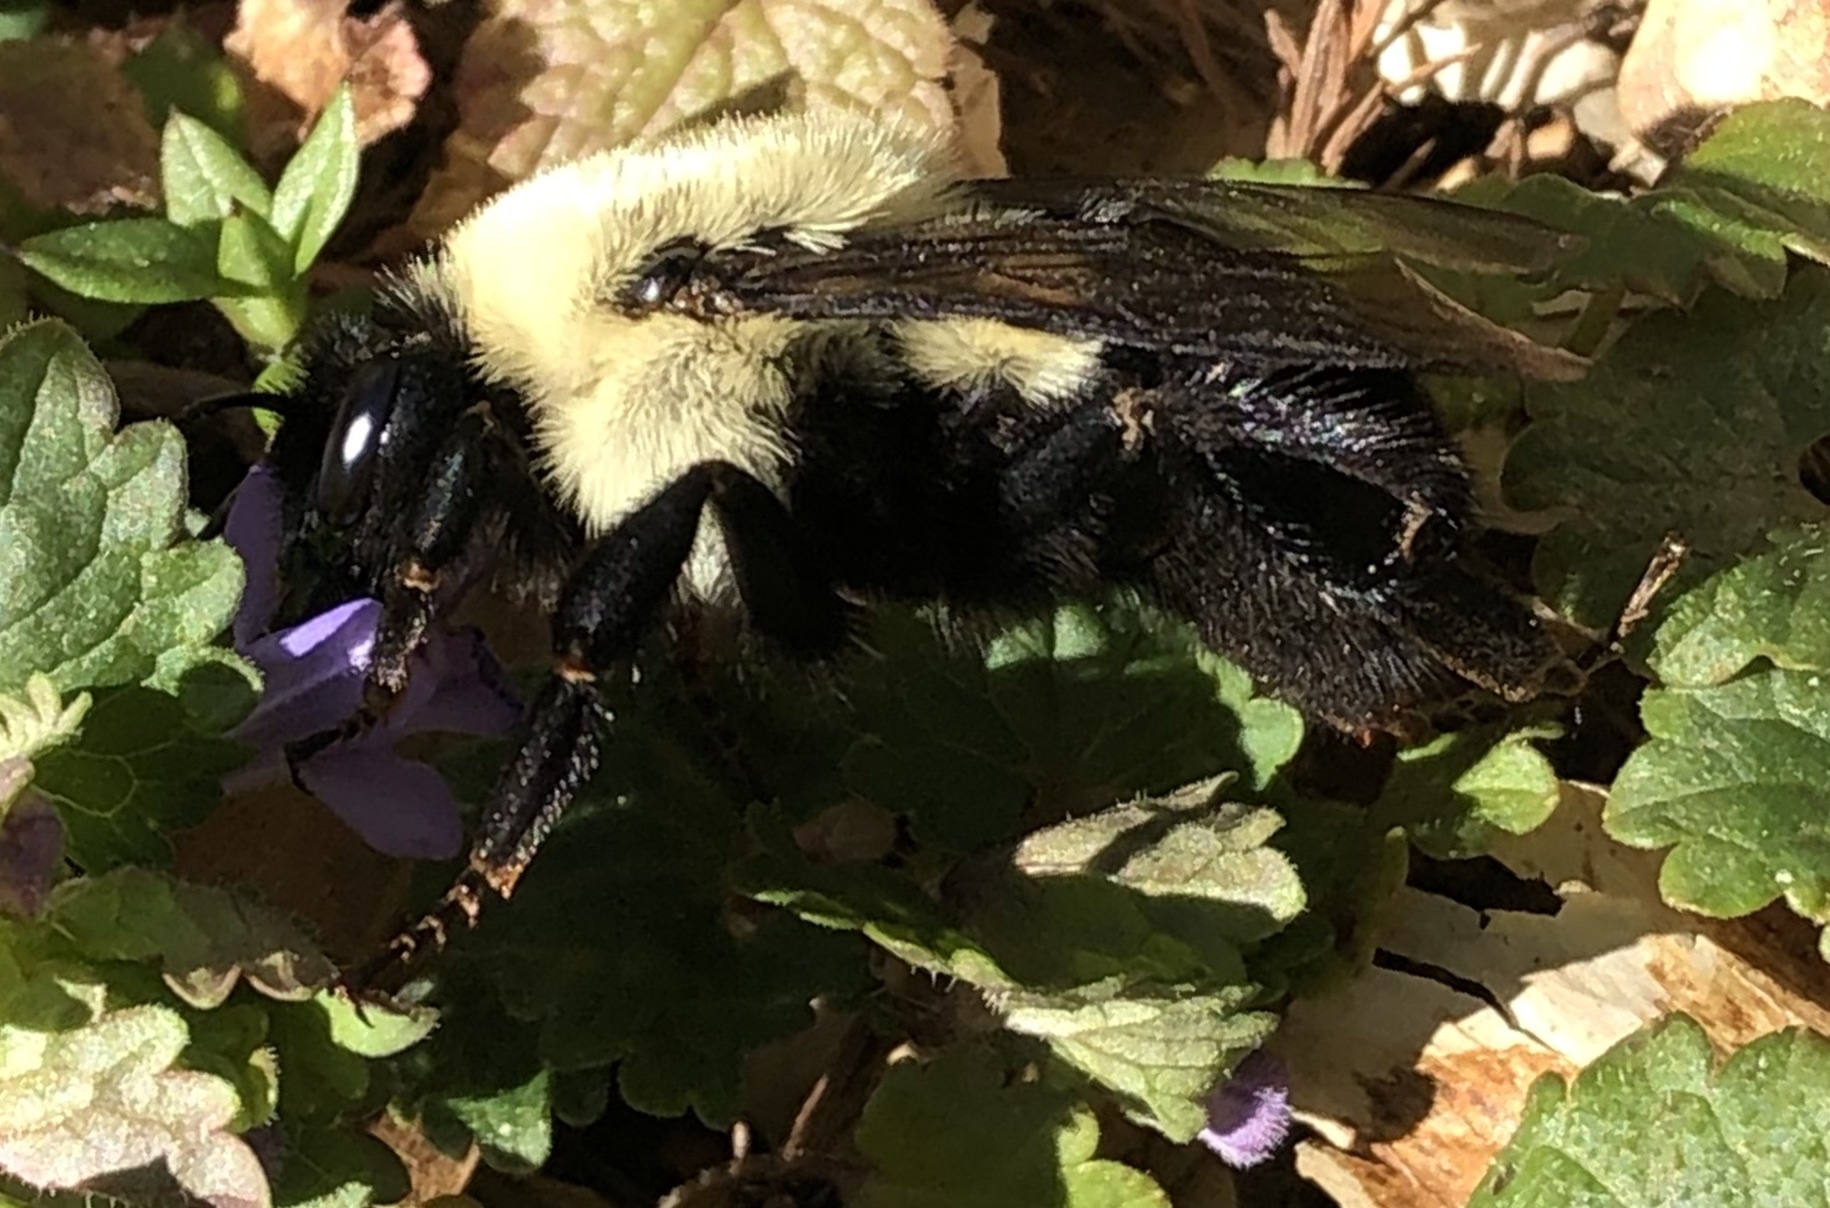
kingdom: Animalia
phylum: Arthropoda
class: Insecta
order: Hymenoptera
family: Apidae
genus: Bombus
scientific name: Bombus impatiens
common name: Common eastern bumble bee
